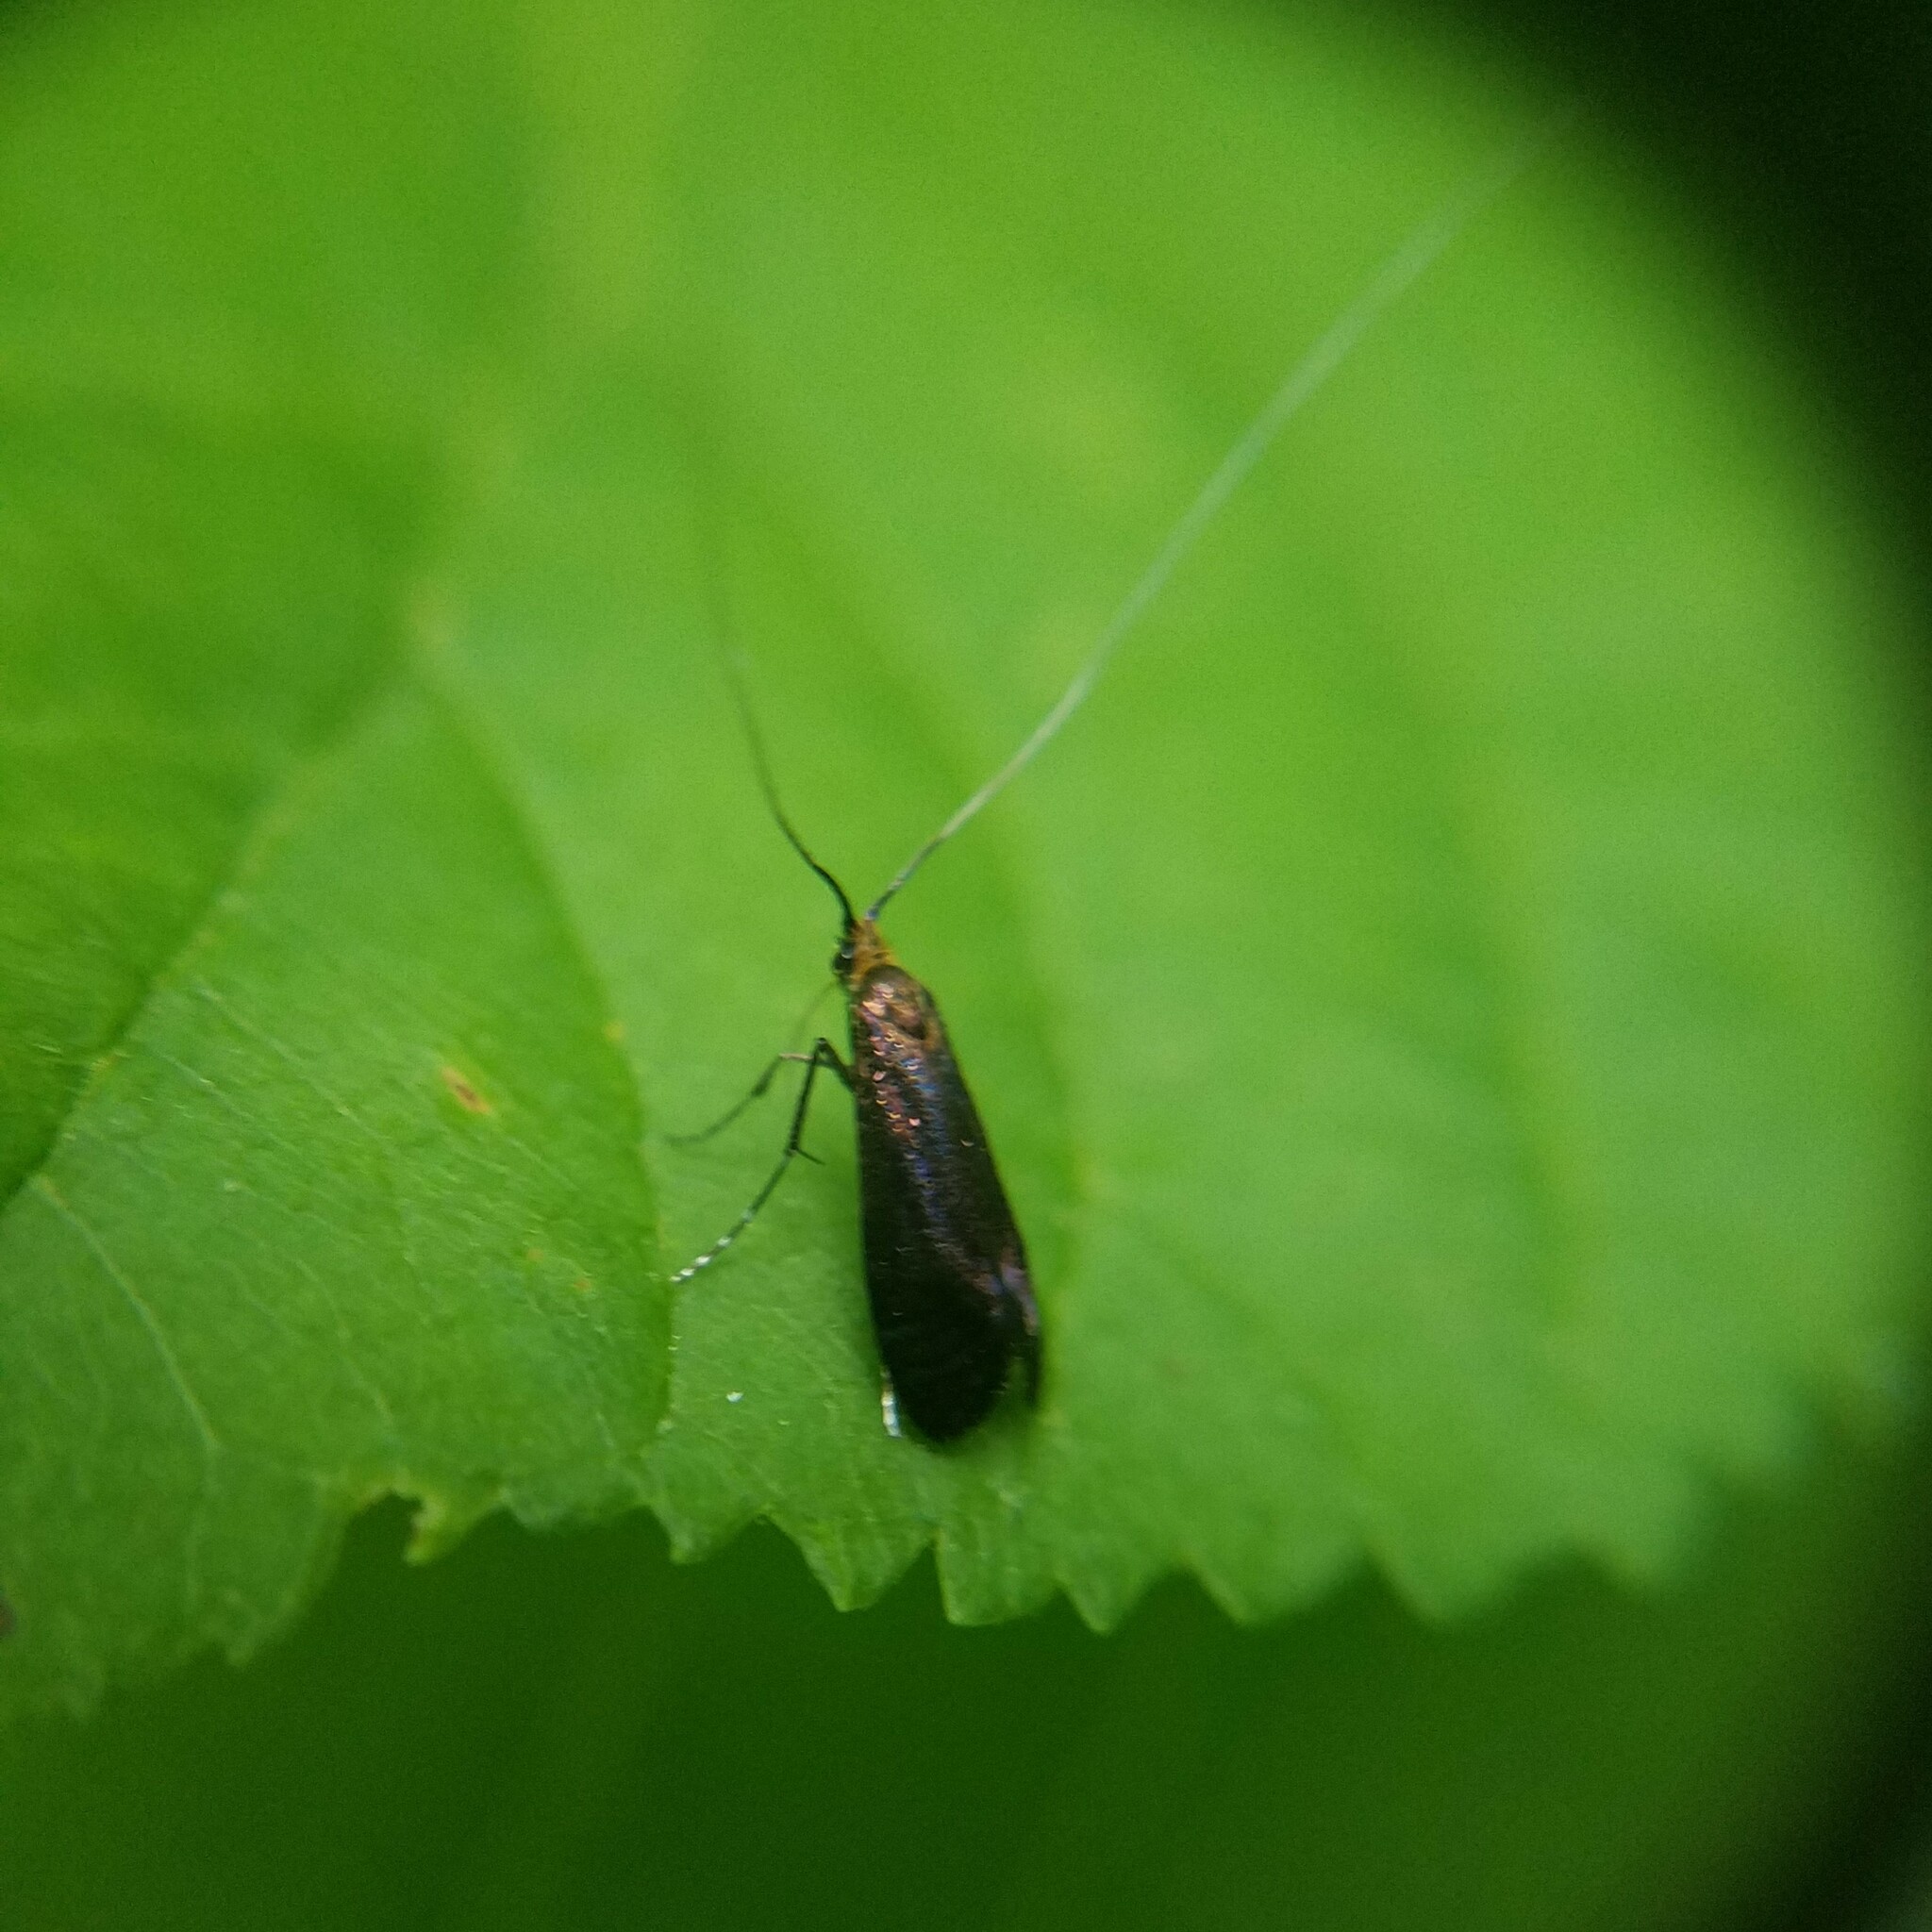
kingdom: Animalia
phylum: Arthropoda
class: Insecta
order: Lepidoptera
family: Adelidae
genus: Adela
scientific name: Adela caeruleella
